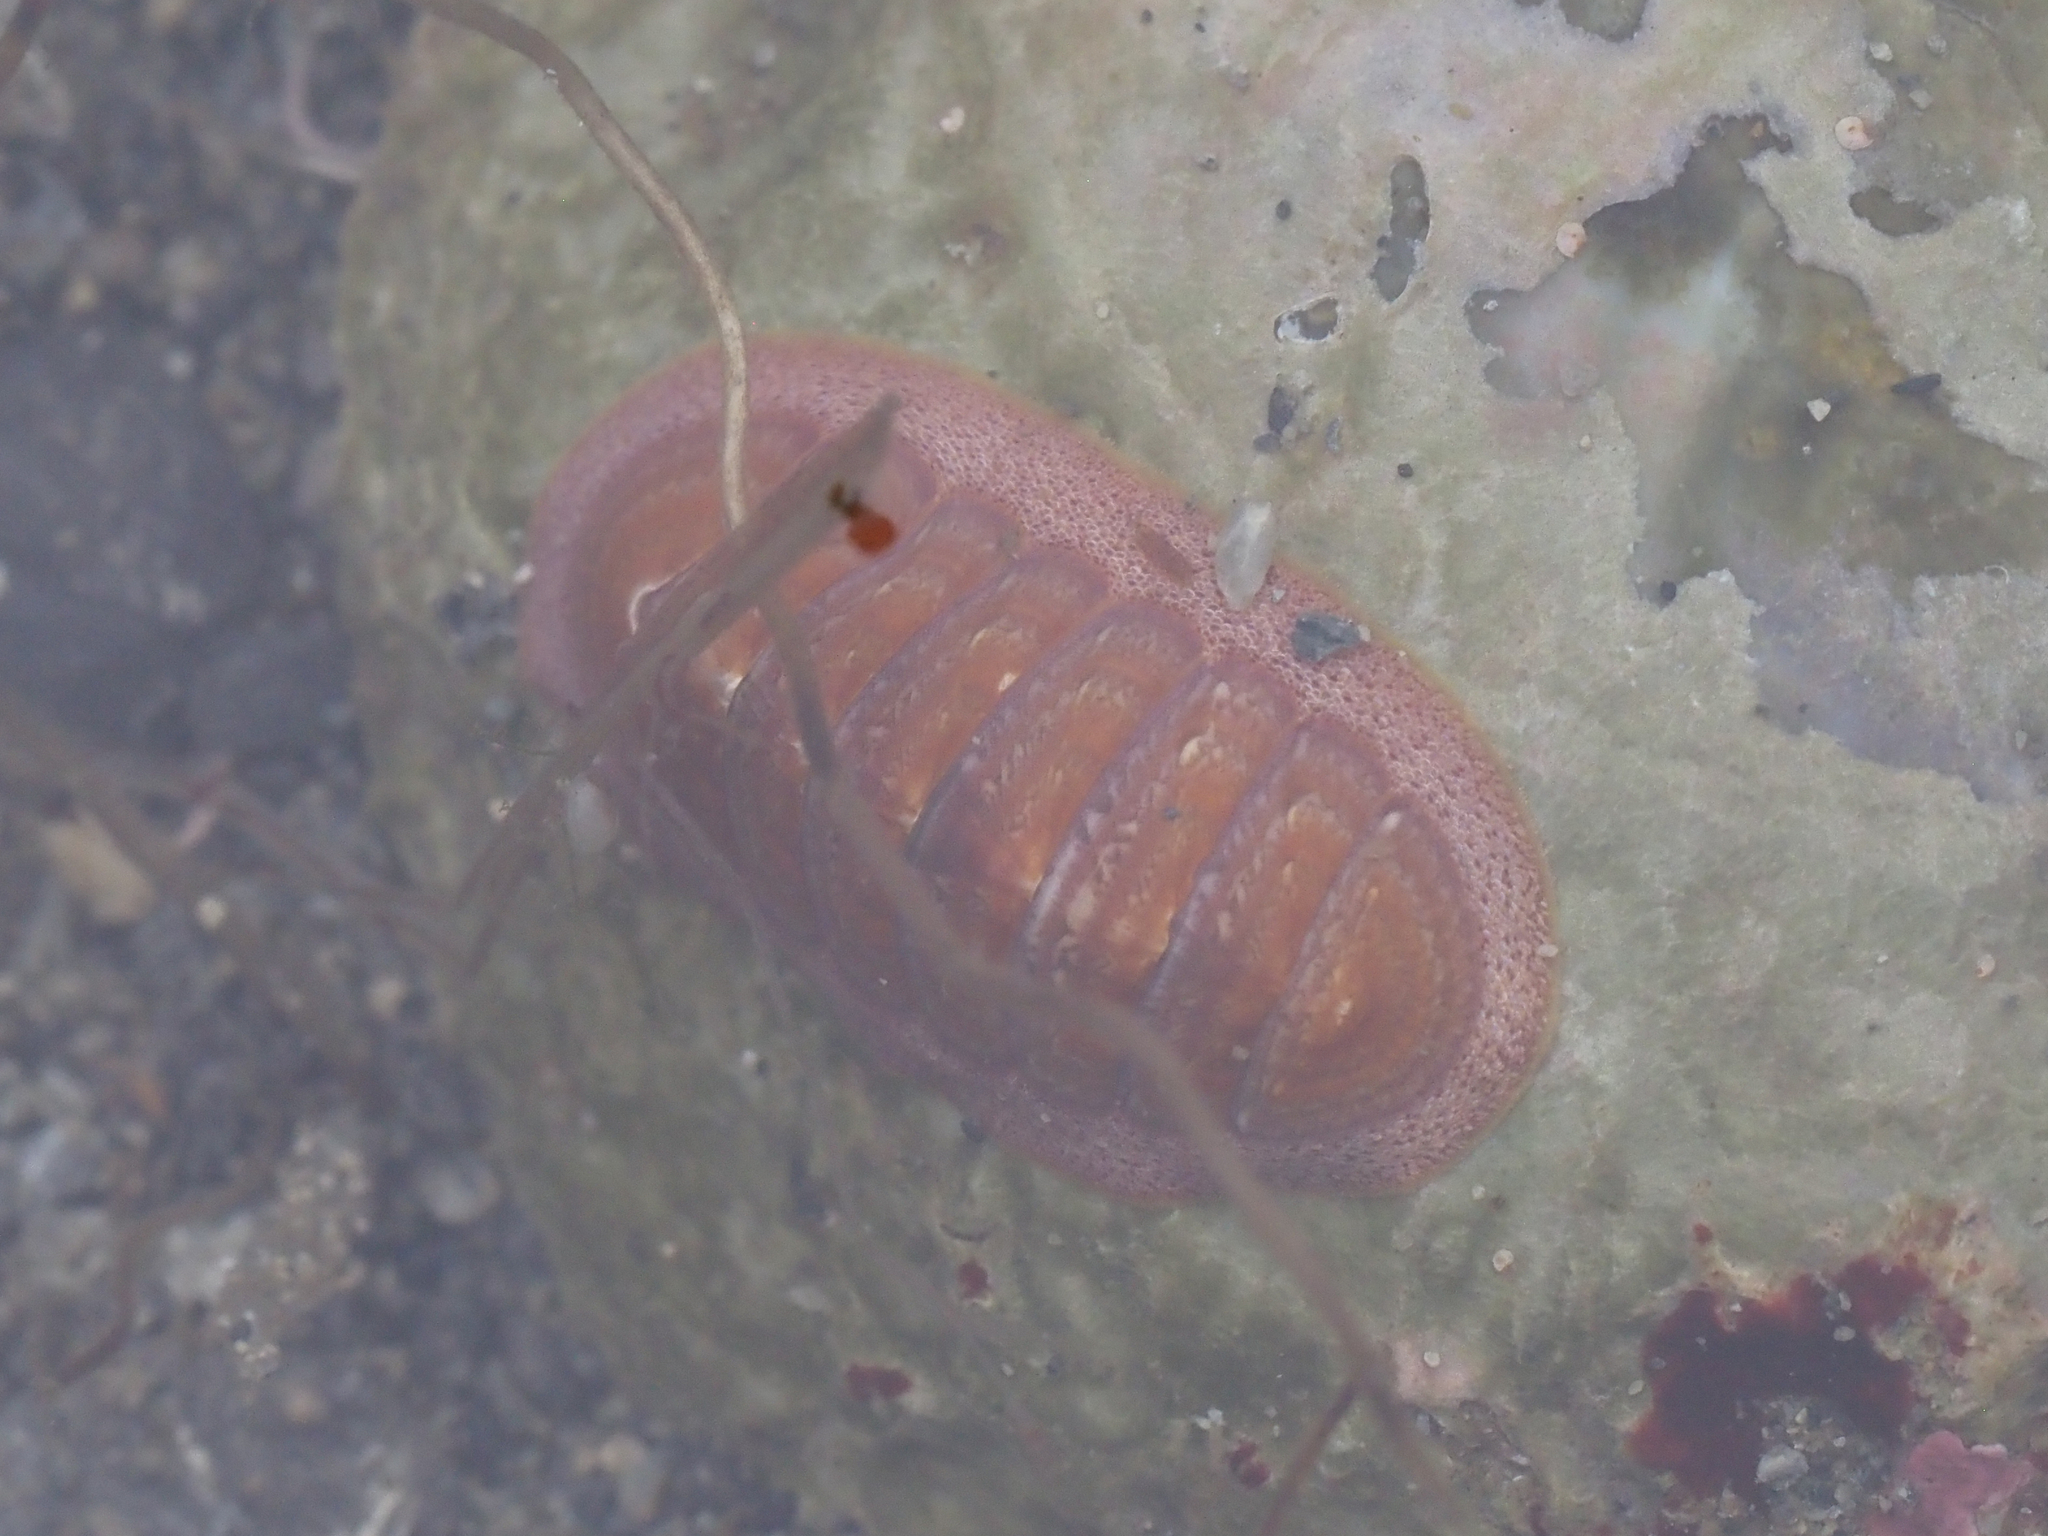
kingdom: Animalia
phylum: Mollusca
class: Polyplacophora
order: Chitonida
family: Ischnochitonidae
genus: Lepidozona
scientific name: Lepidozona interstincta
